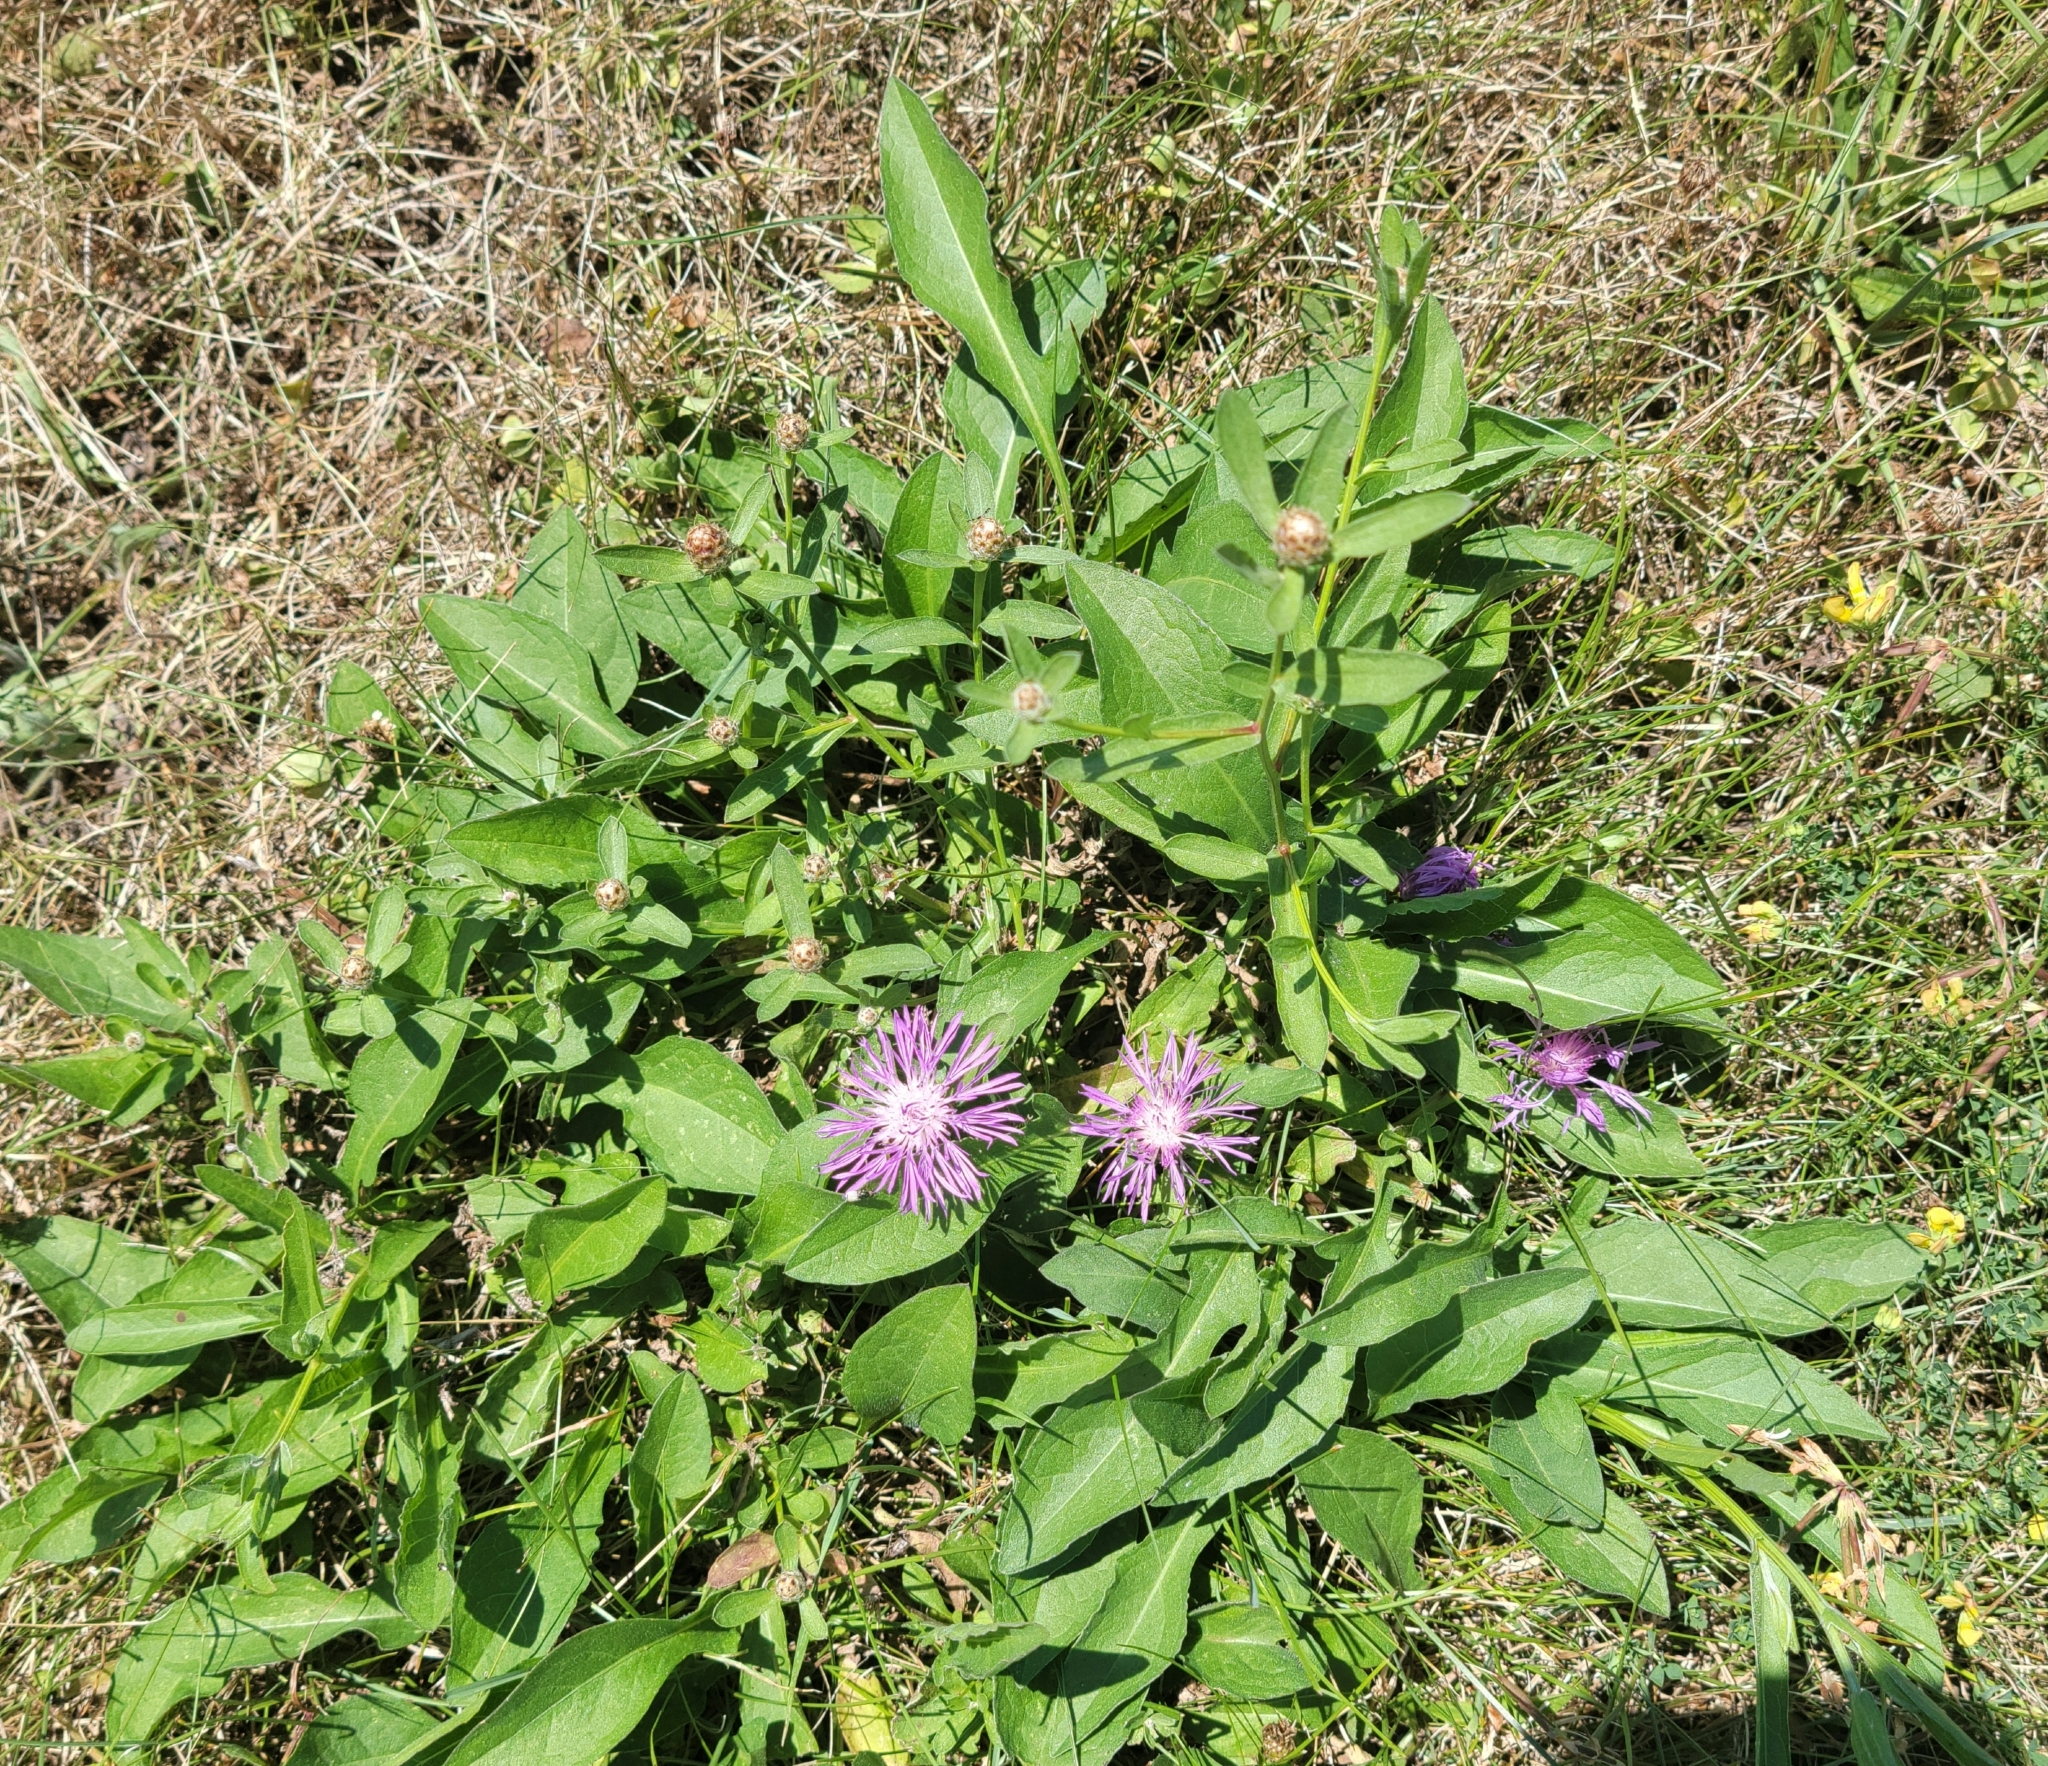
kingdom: Plantae
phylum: Tracheophyta
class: Magnoliopsida
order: Asterales
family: Asteraceae
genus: Centaurea
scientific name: Centaurea nigrescens
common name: Tyrol knapweed
